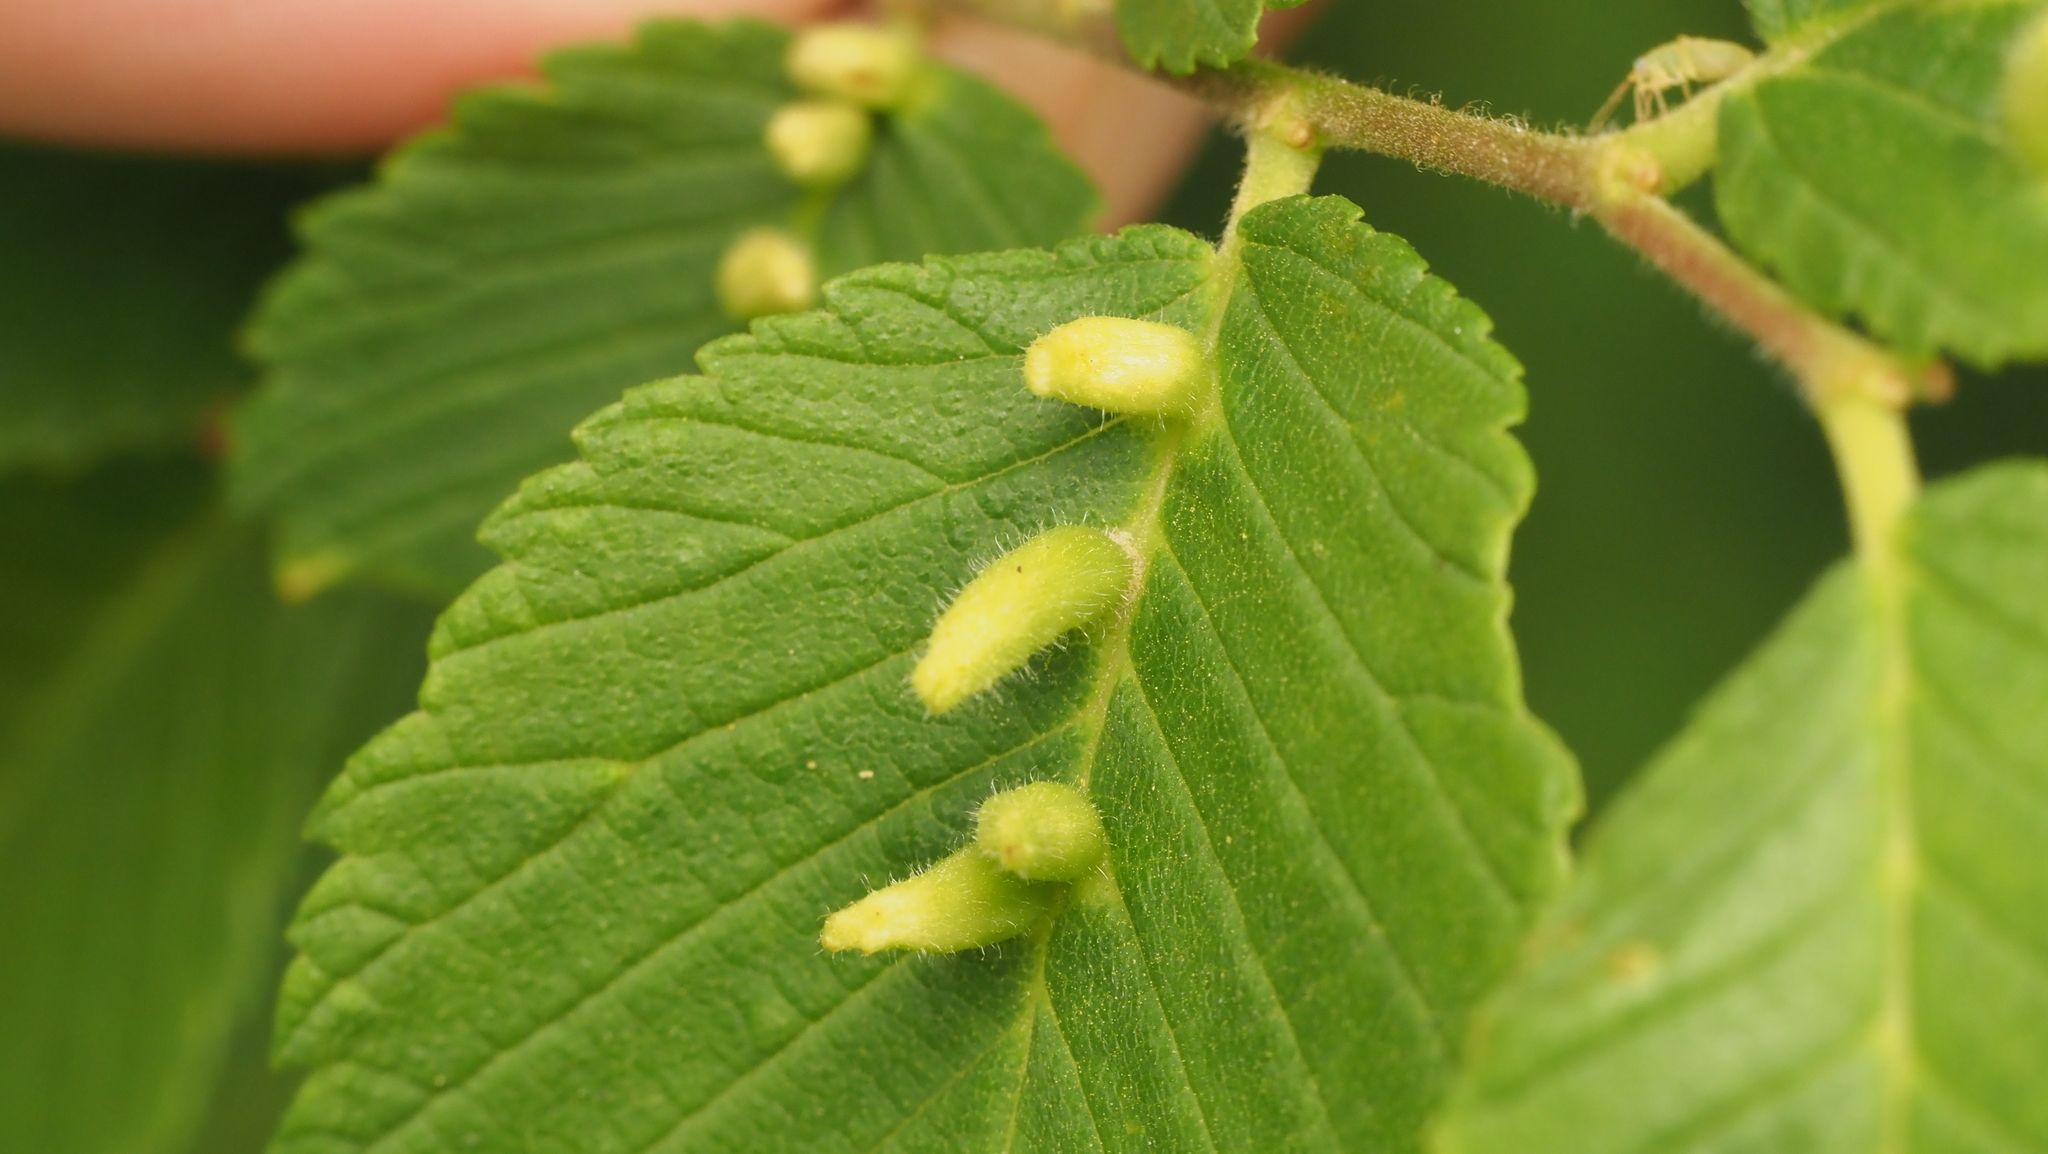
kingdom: Animalia
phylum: Arthropoda
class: Arachnida
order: Trombidiformes
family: Eriophyidae
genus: Aceria
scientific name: Aceria
